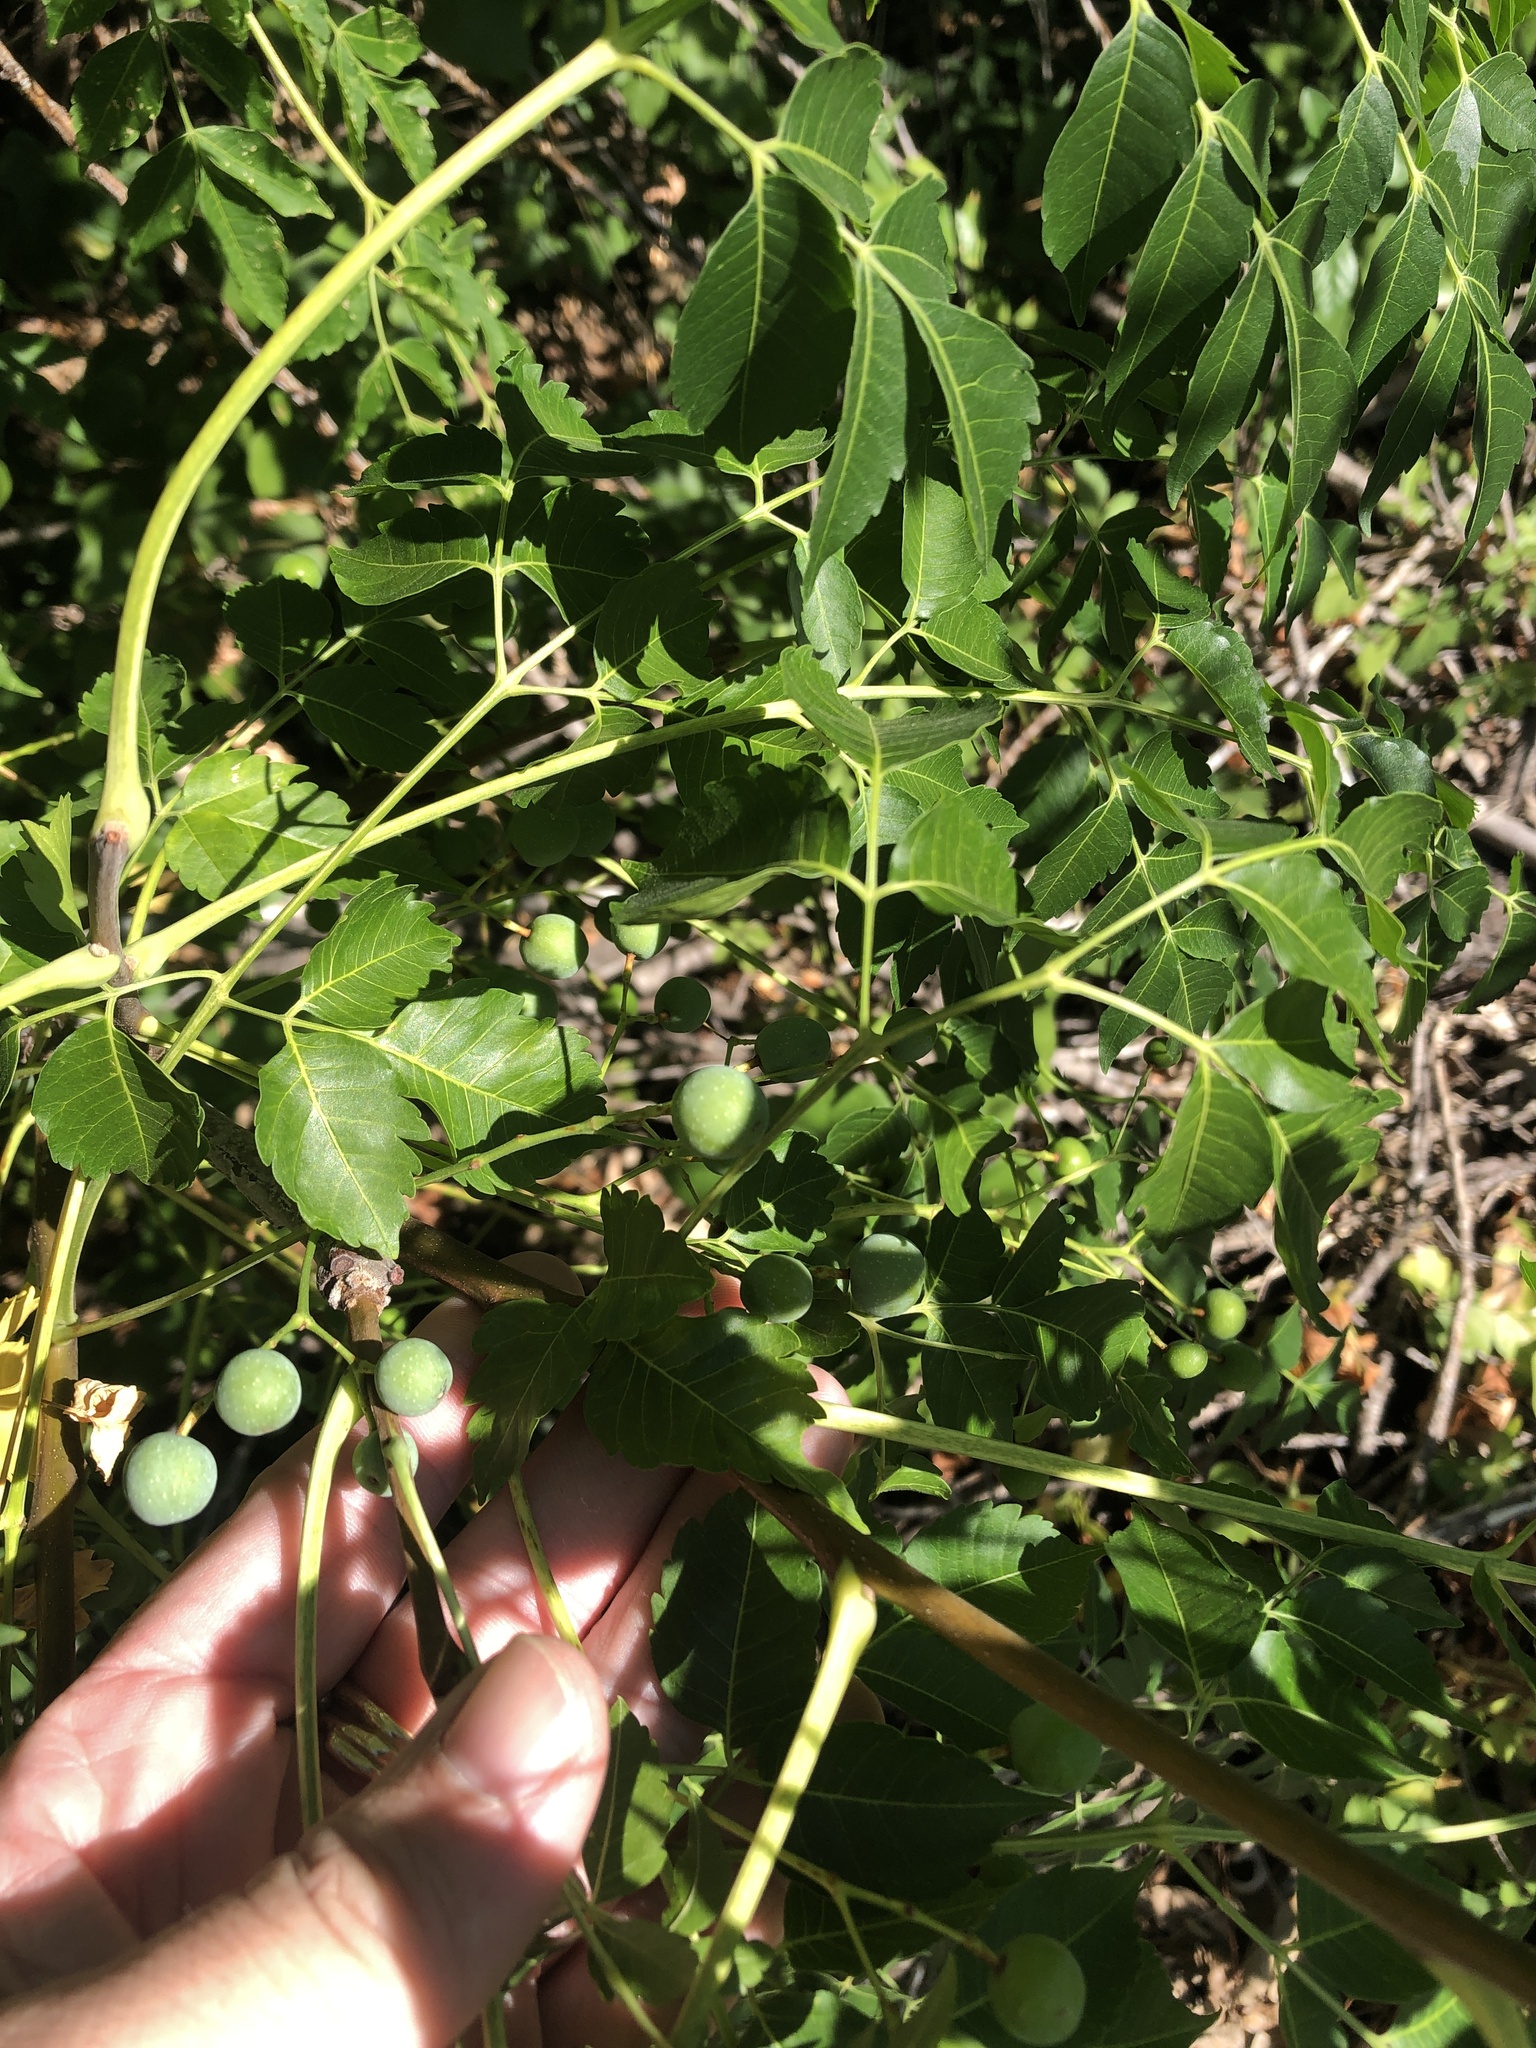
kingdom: Plantae
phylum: Tracheophyta
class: Magnoliopsida
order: Sapindales
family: Meliaceae
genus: Melia
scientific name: Melia azedarach
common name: Chinaberrytree
